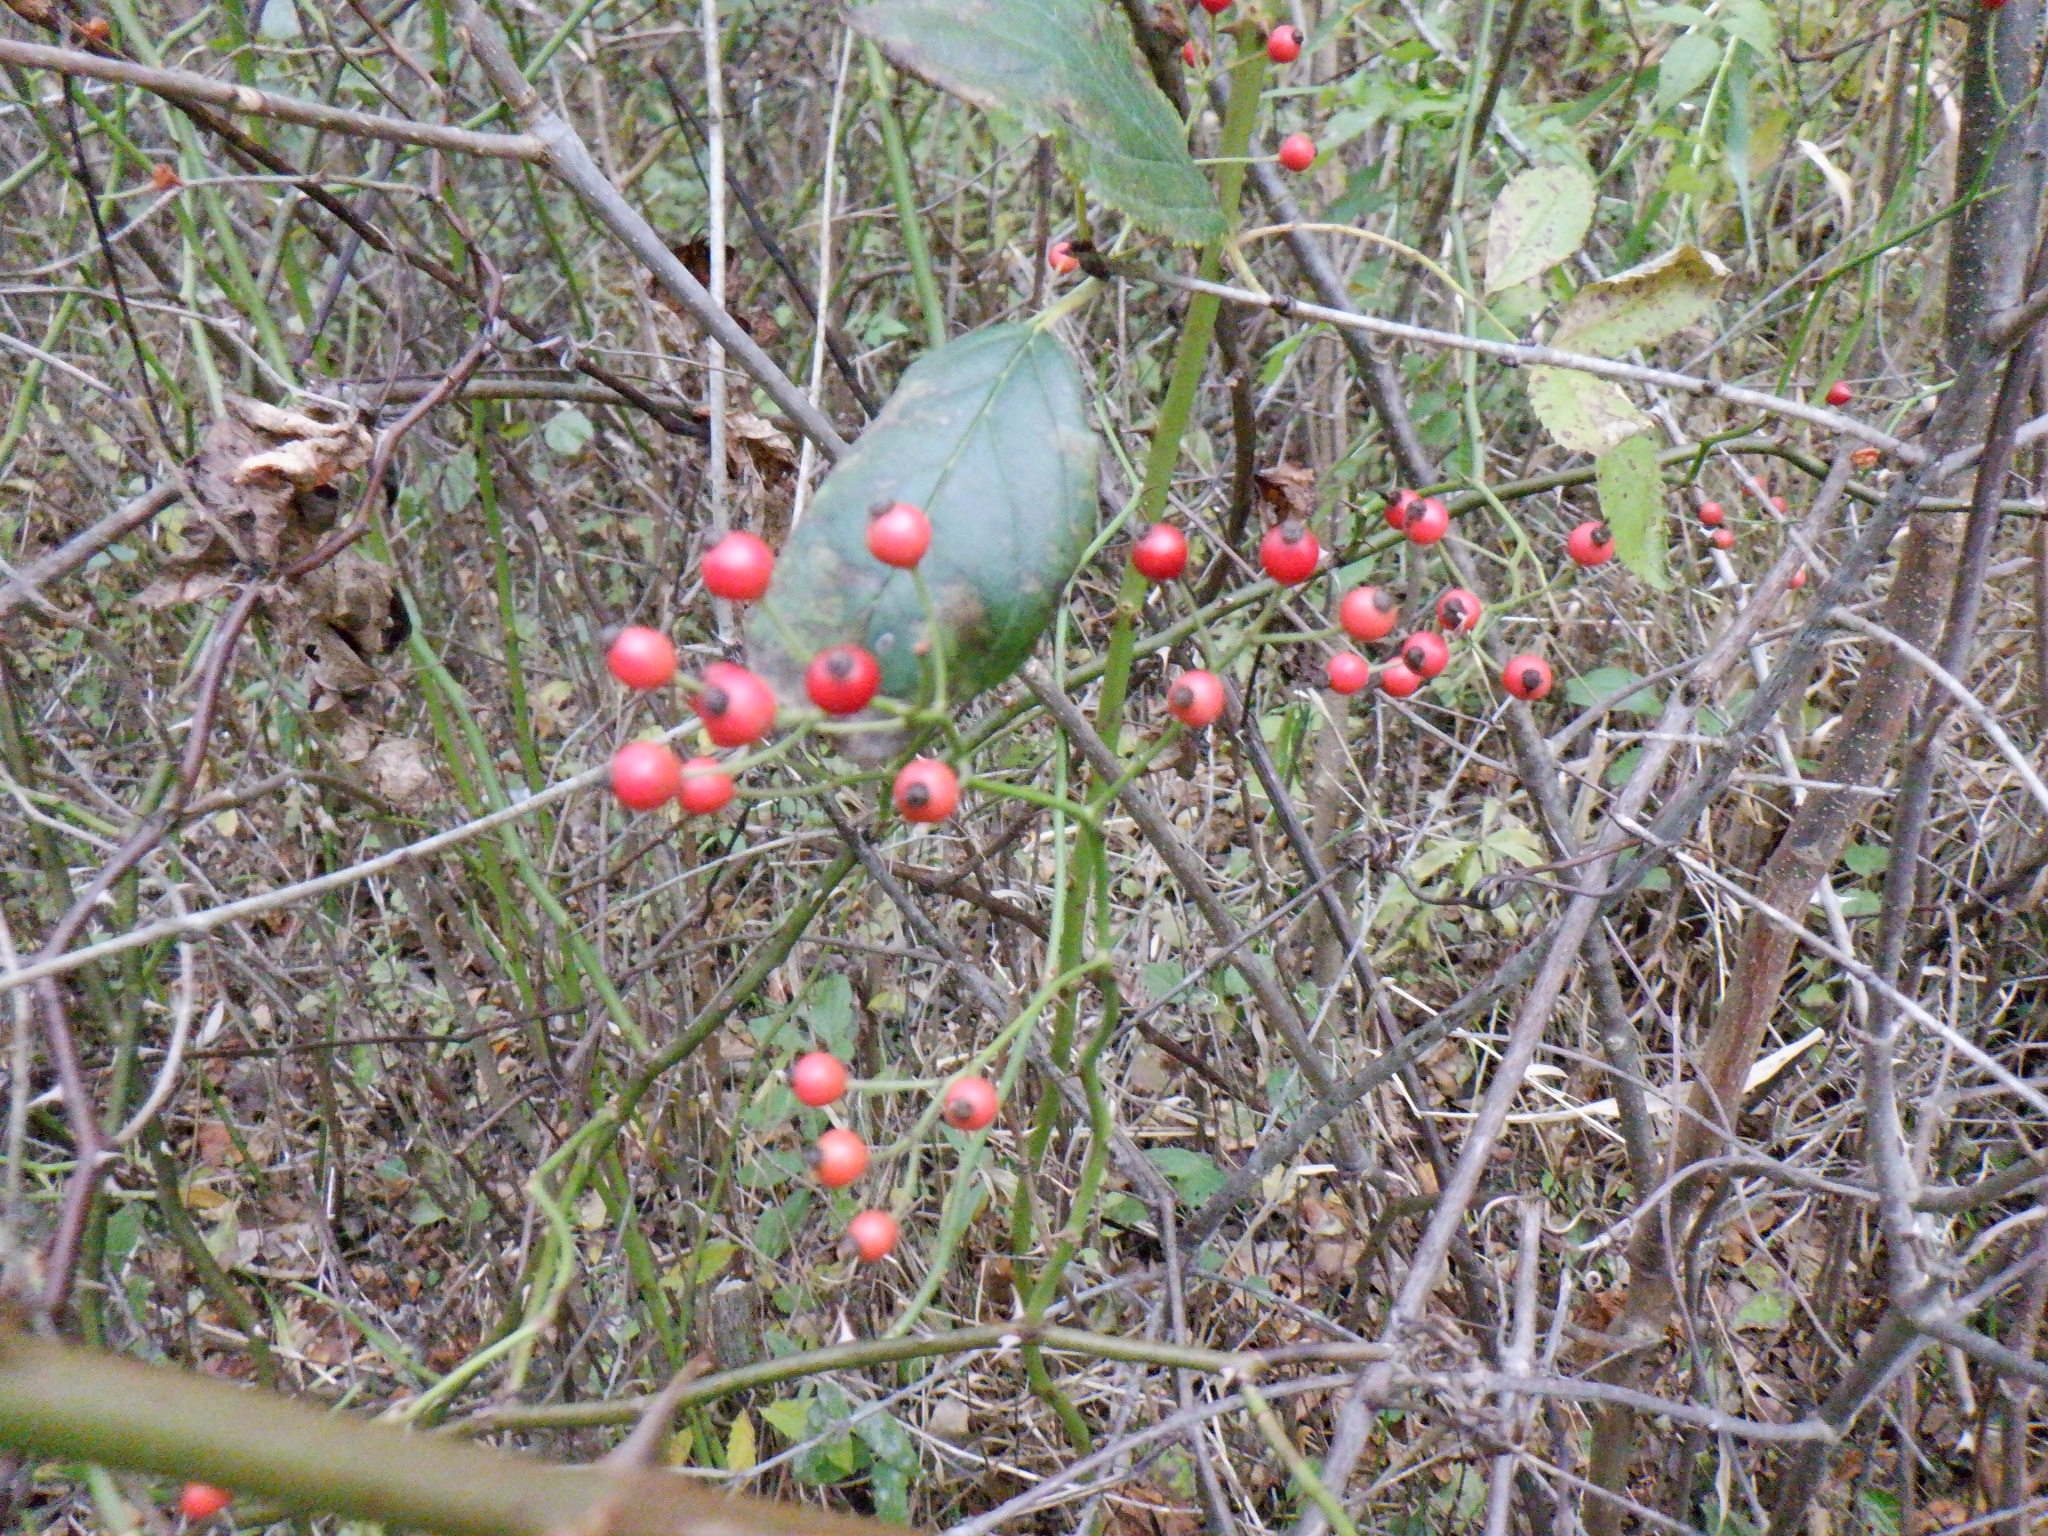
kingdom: Plantae
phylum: Tracheophyta
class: Magnoliopsida
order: Rosales
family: Rosaceae
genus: Rosa
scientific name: Rosa multiflora
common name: Multiflora rose
